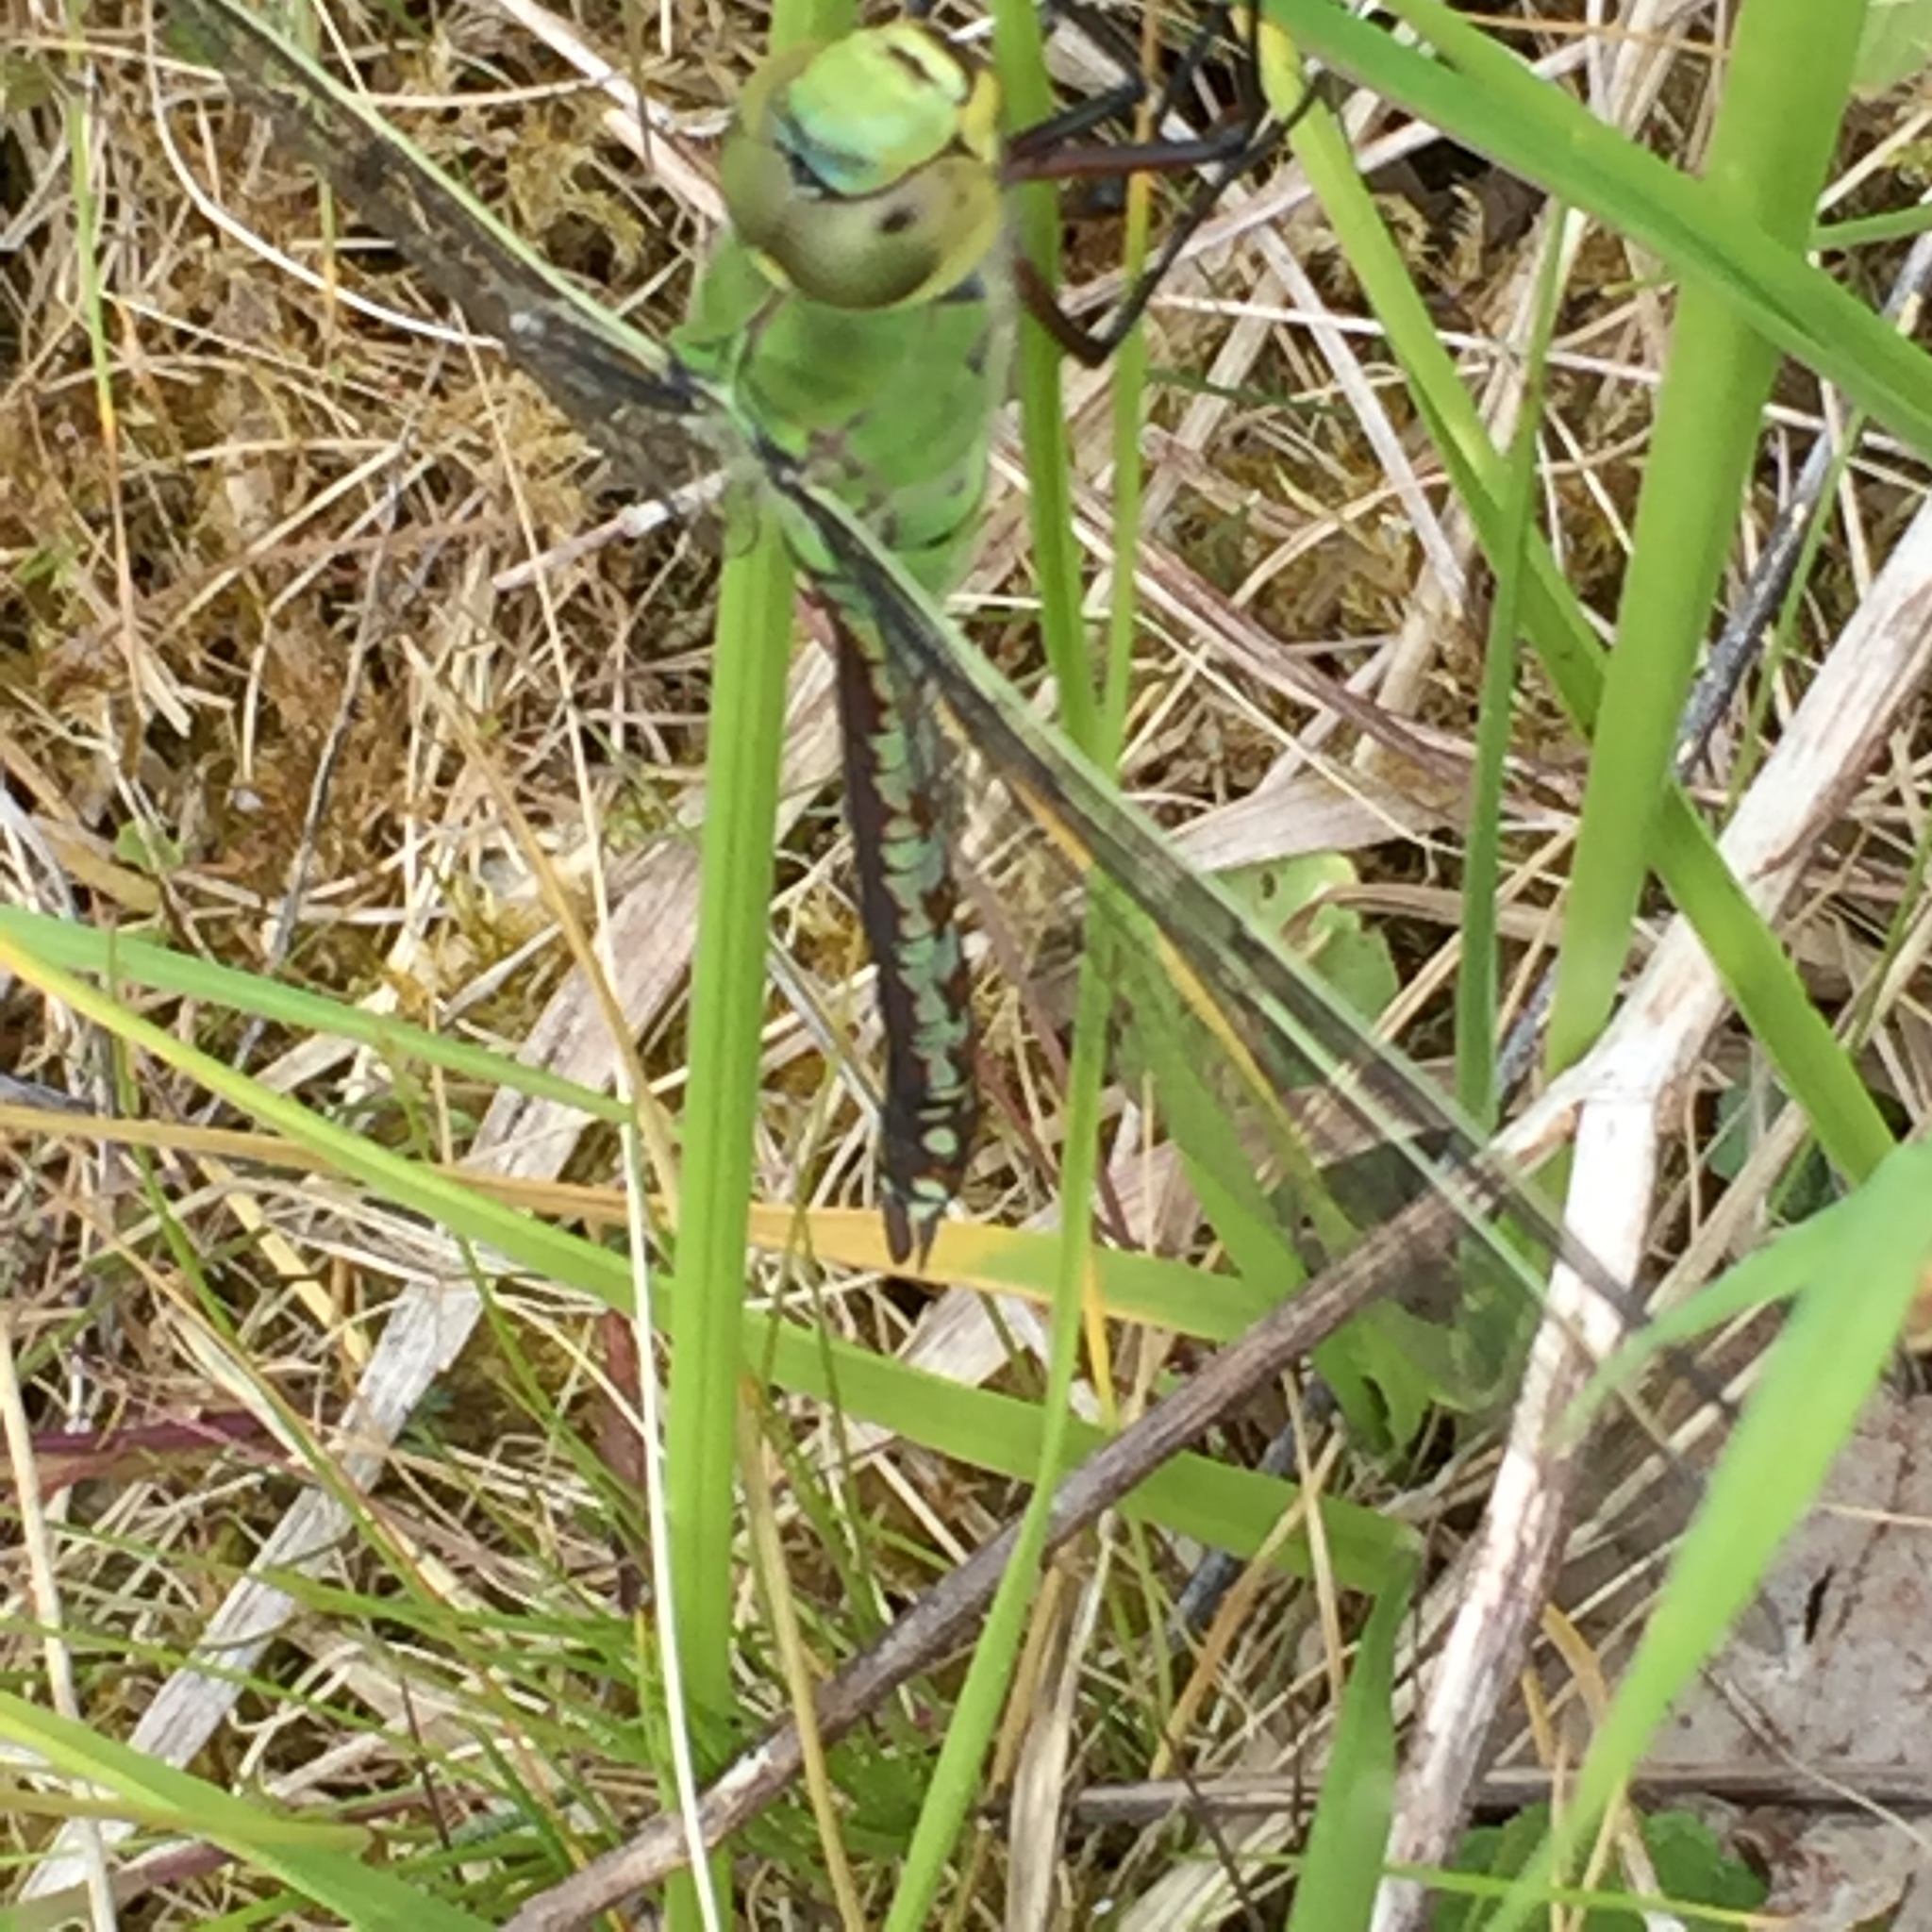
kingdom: Animalia
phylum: Arthropoda
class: Insecta
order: Odonata
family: Aeshnidae
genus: Anax
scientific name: Anax imperator
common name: Emperor dragonfly
